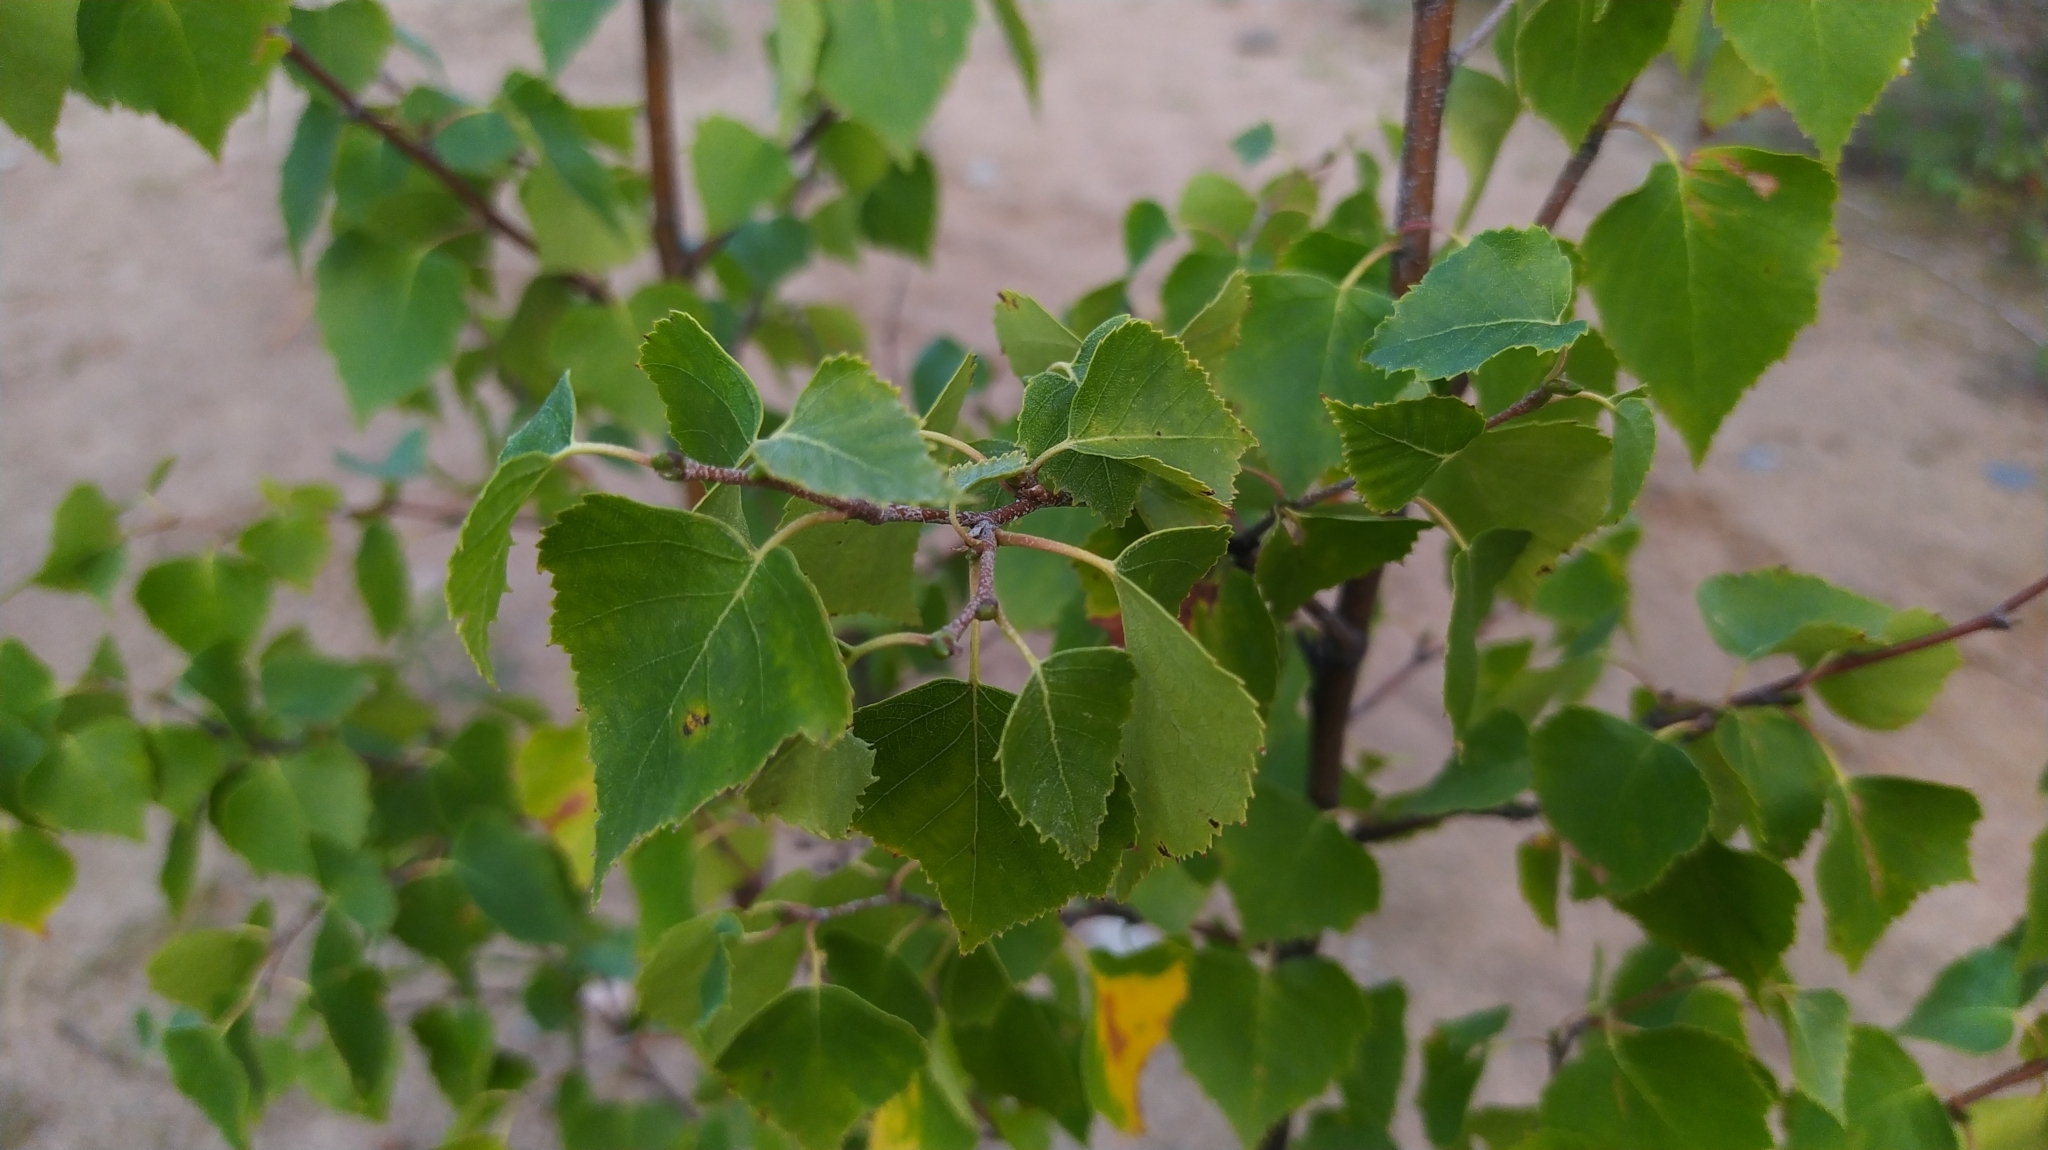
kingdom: Plantae
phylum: Tracheophyta
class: Magnoliopsida
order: Fagales
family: Betulaceae
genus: Betula
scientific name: Betula pendula
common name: Silver birch
